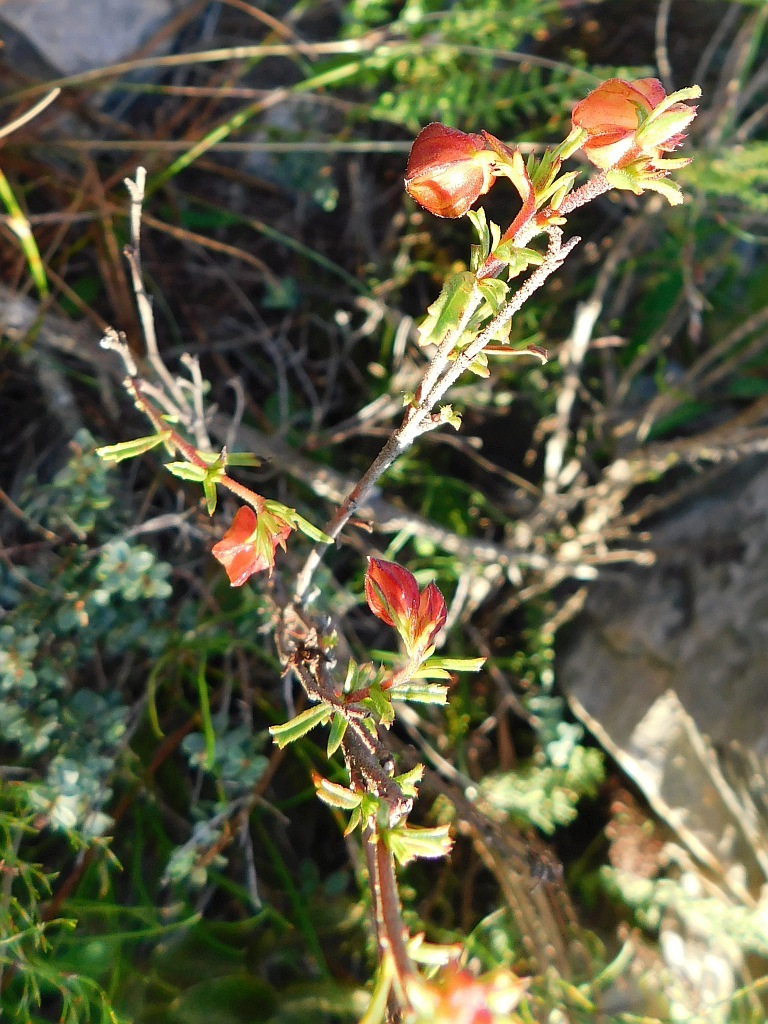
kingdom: Plantae
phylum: Tracheophyta
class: Magnoliopsida
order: Malvales
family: Malvaceae
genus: Hermannia
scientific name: Hermannia angularis
